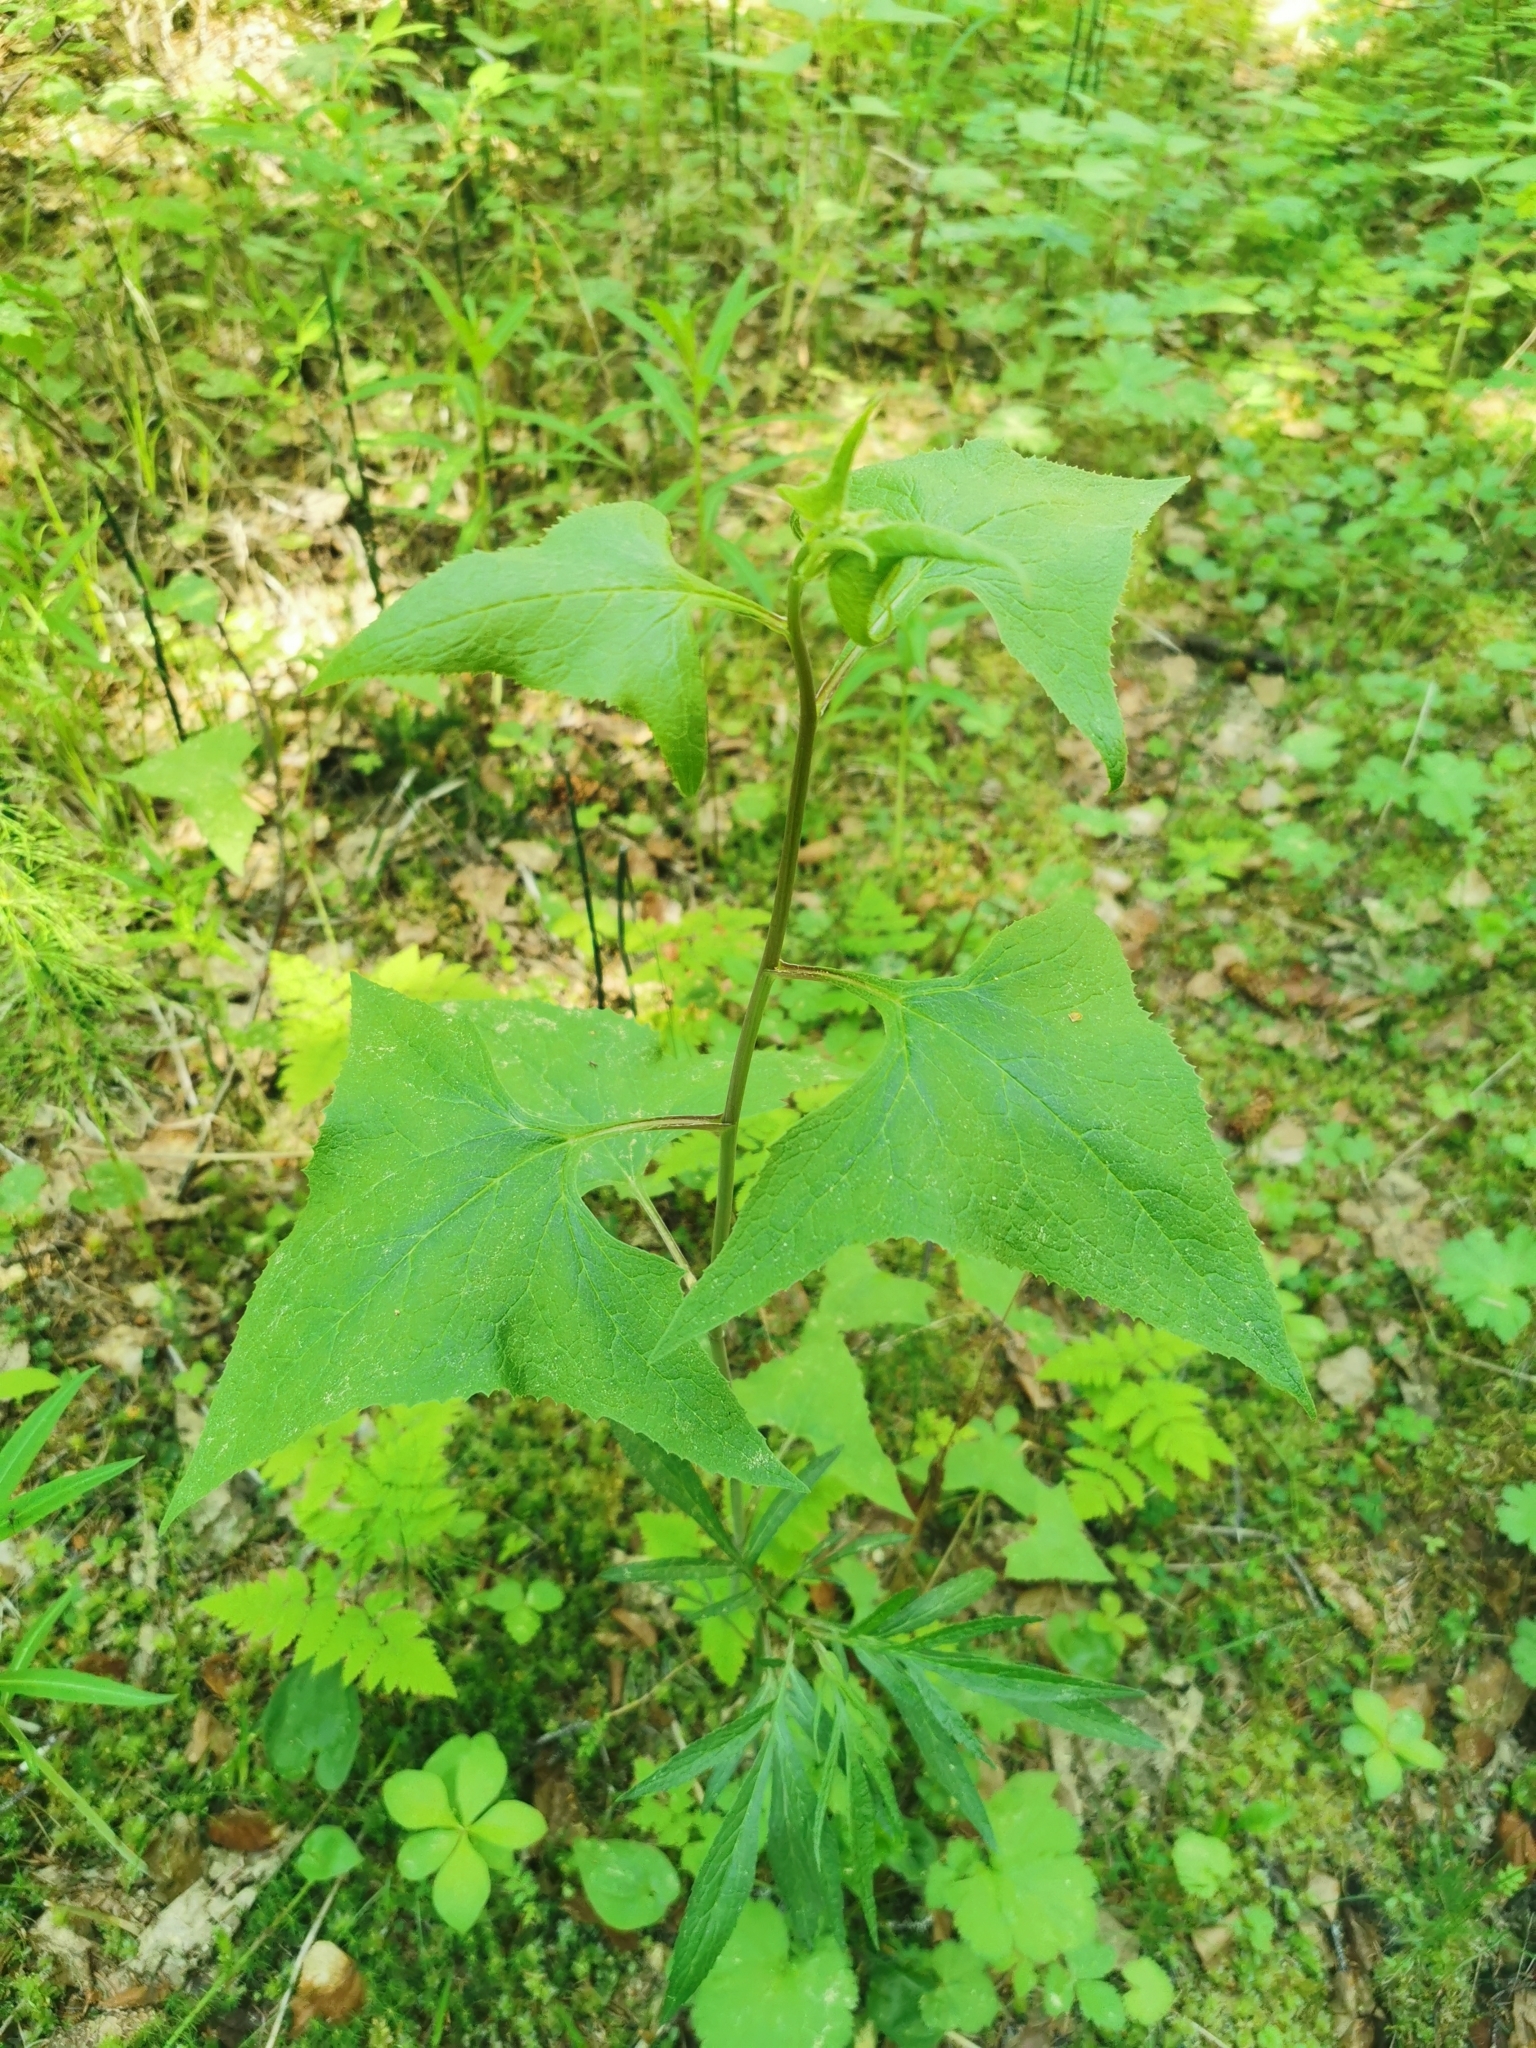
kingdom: Plantae
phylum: Tracheophyta
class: Magnoliopsida
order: Asterales
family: Asteraceae
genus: Parasenecio
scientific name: Parasenecio hastatus
